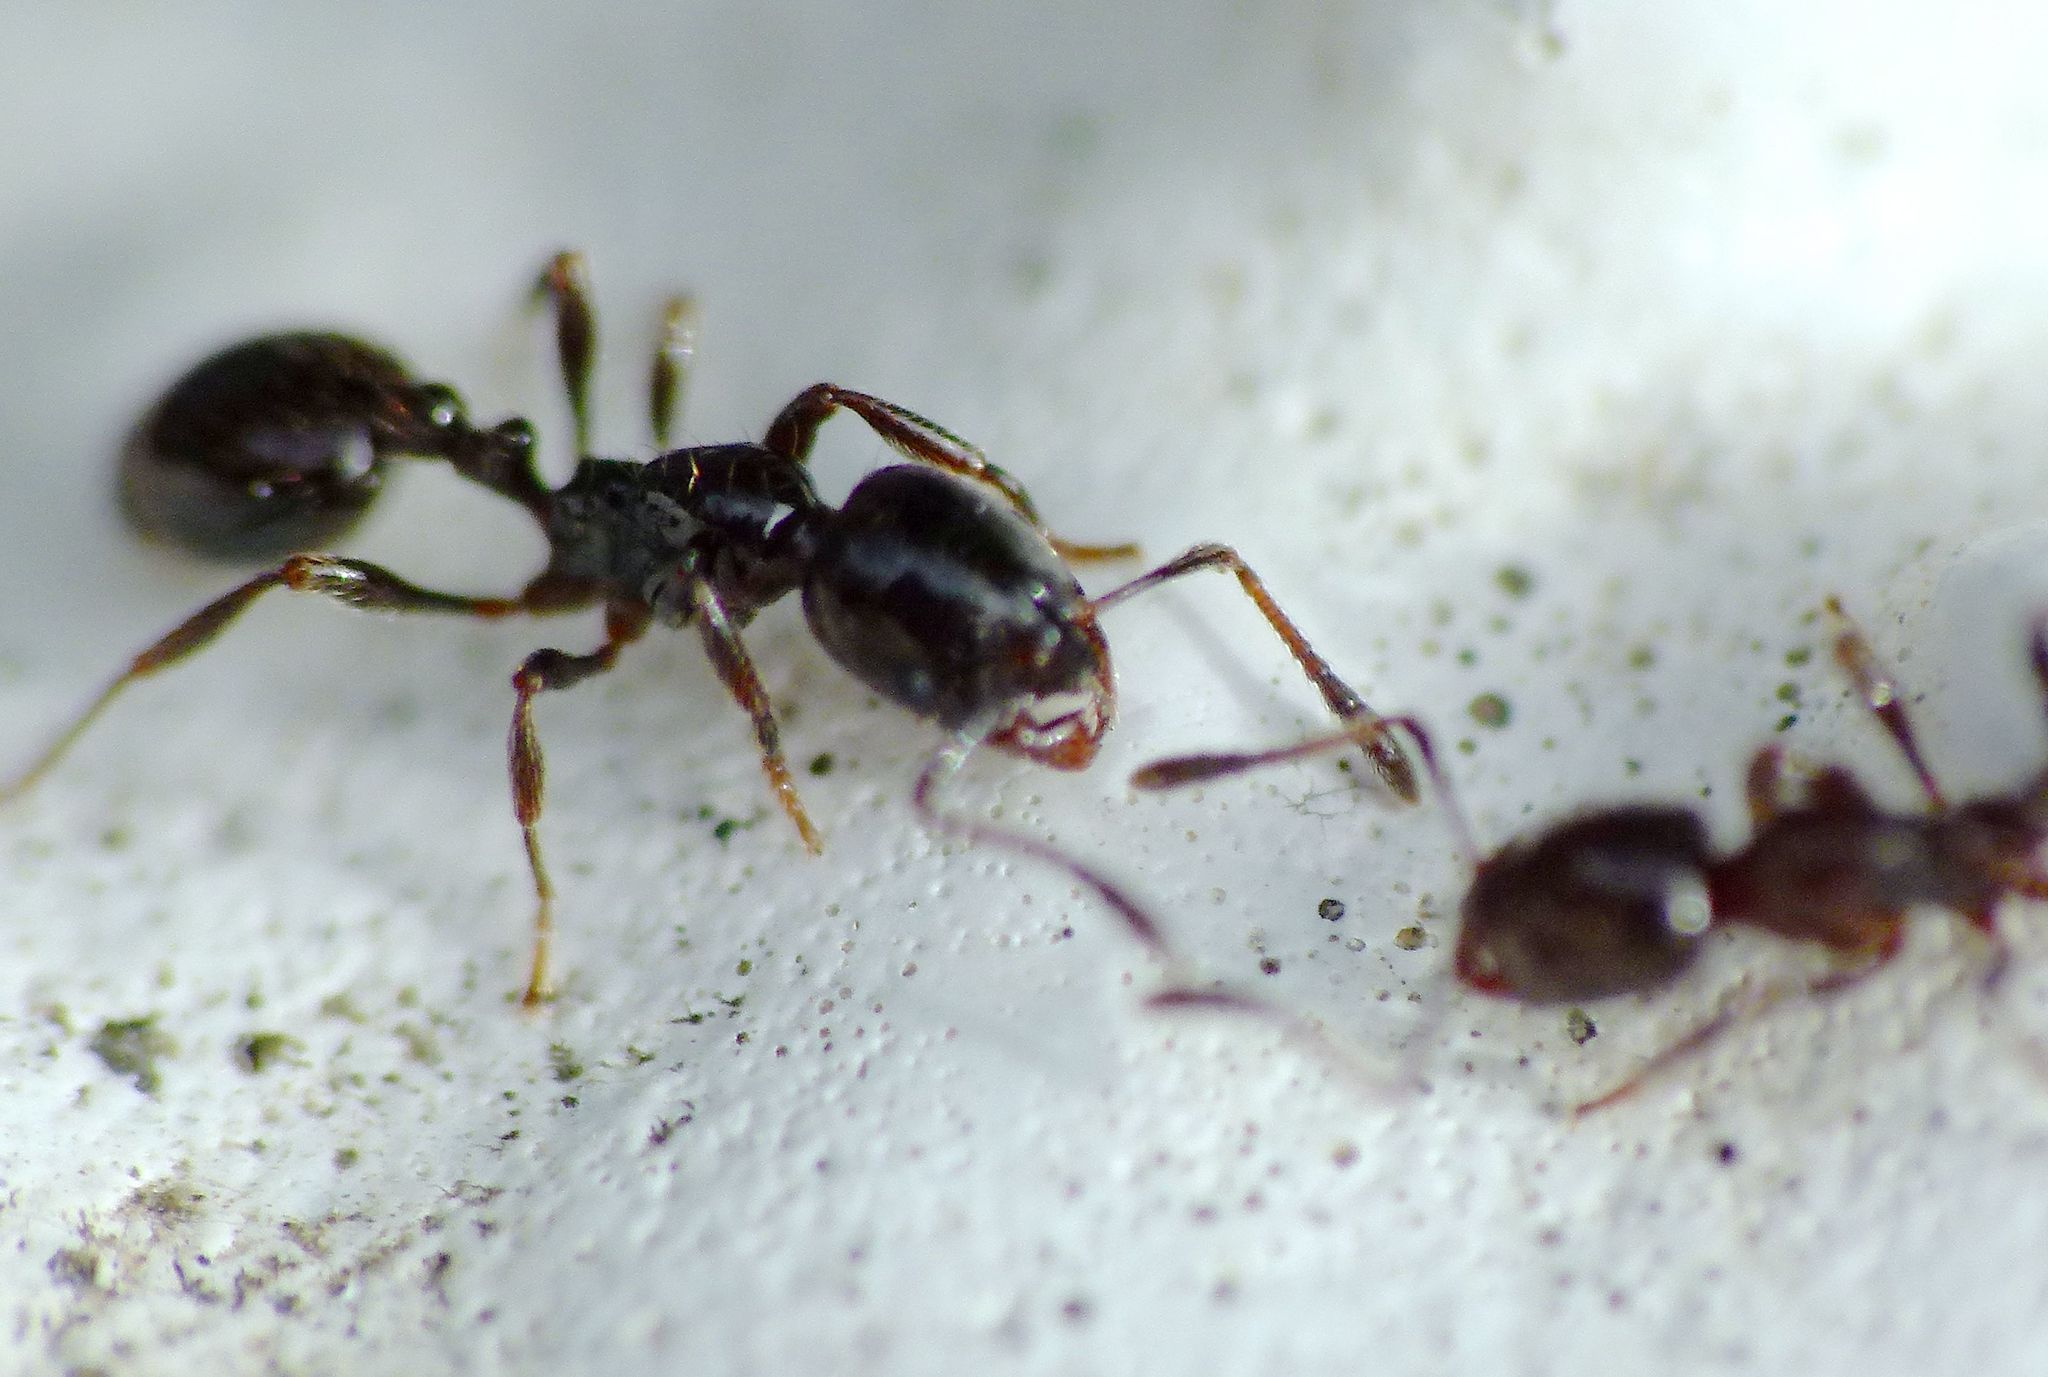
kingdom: Animalia
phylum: Arthropoda
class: Insecta
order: Hymenoptera
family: Formicidae
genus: Monomorium
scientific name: Monomorium antarcticum
